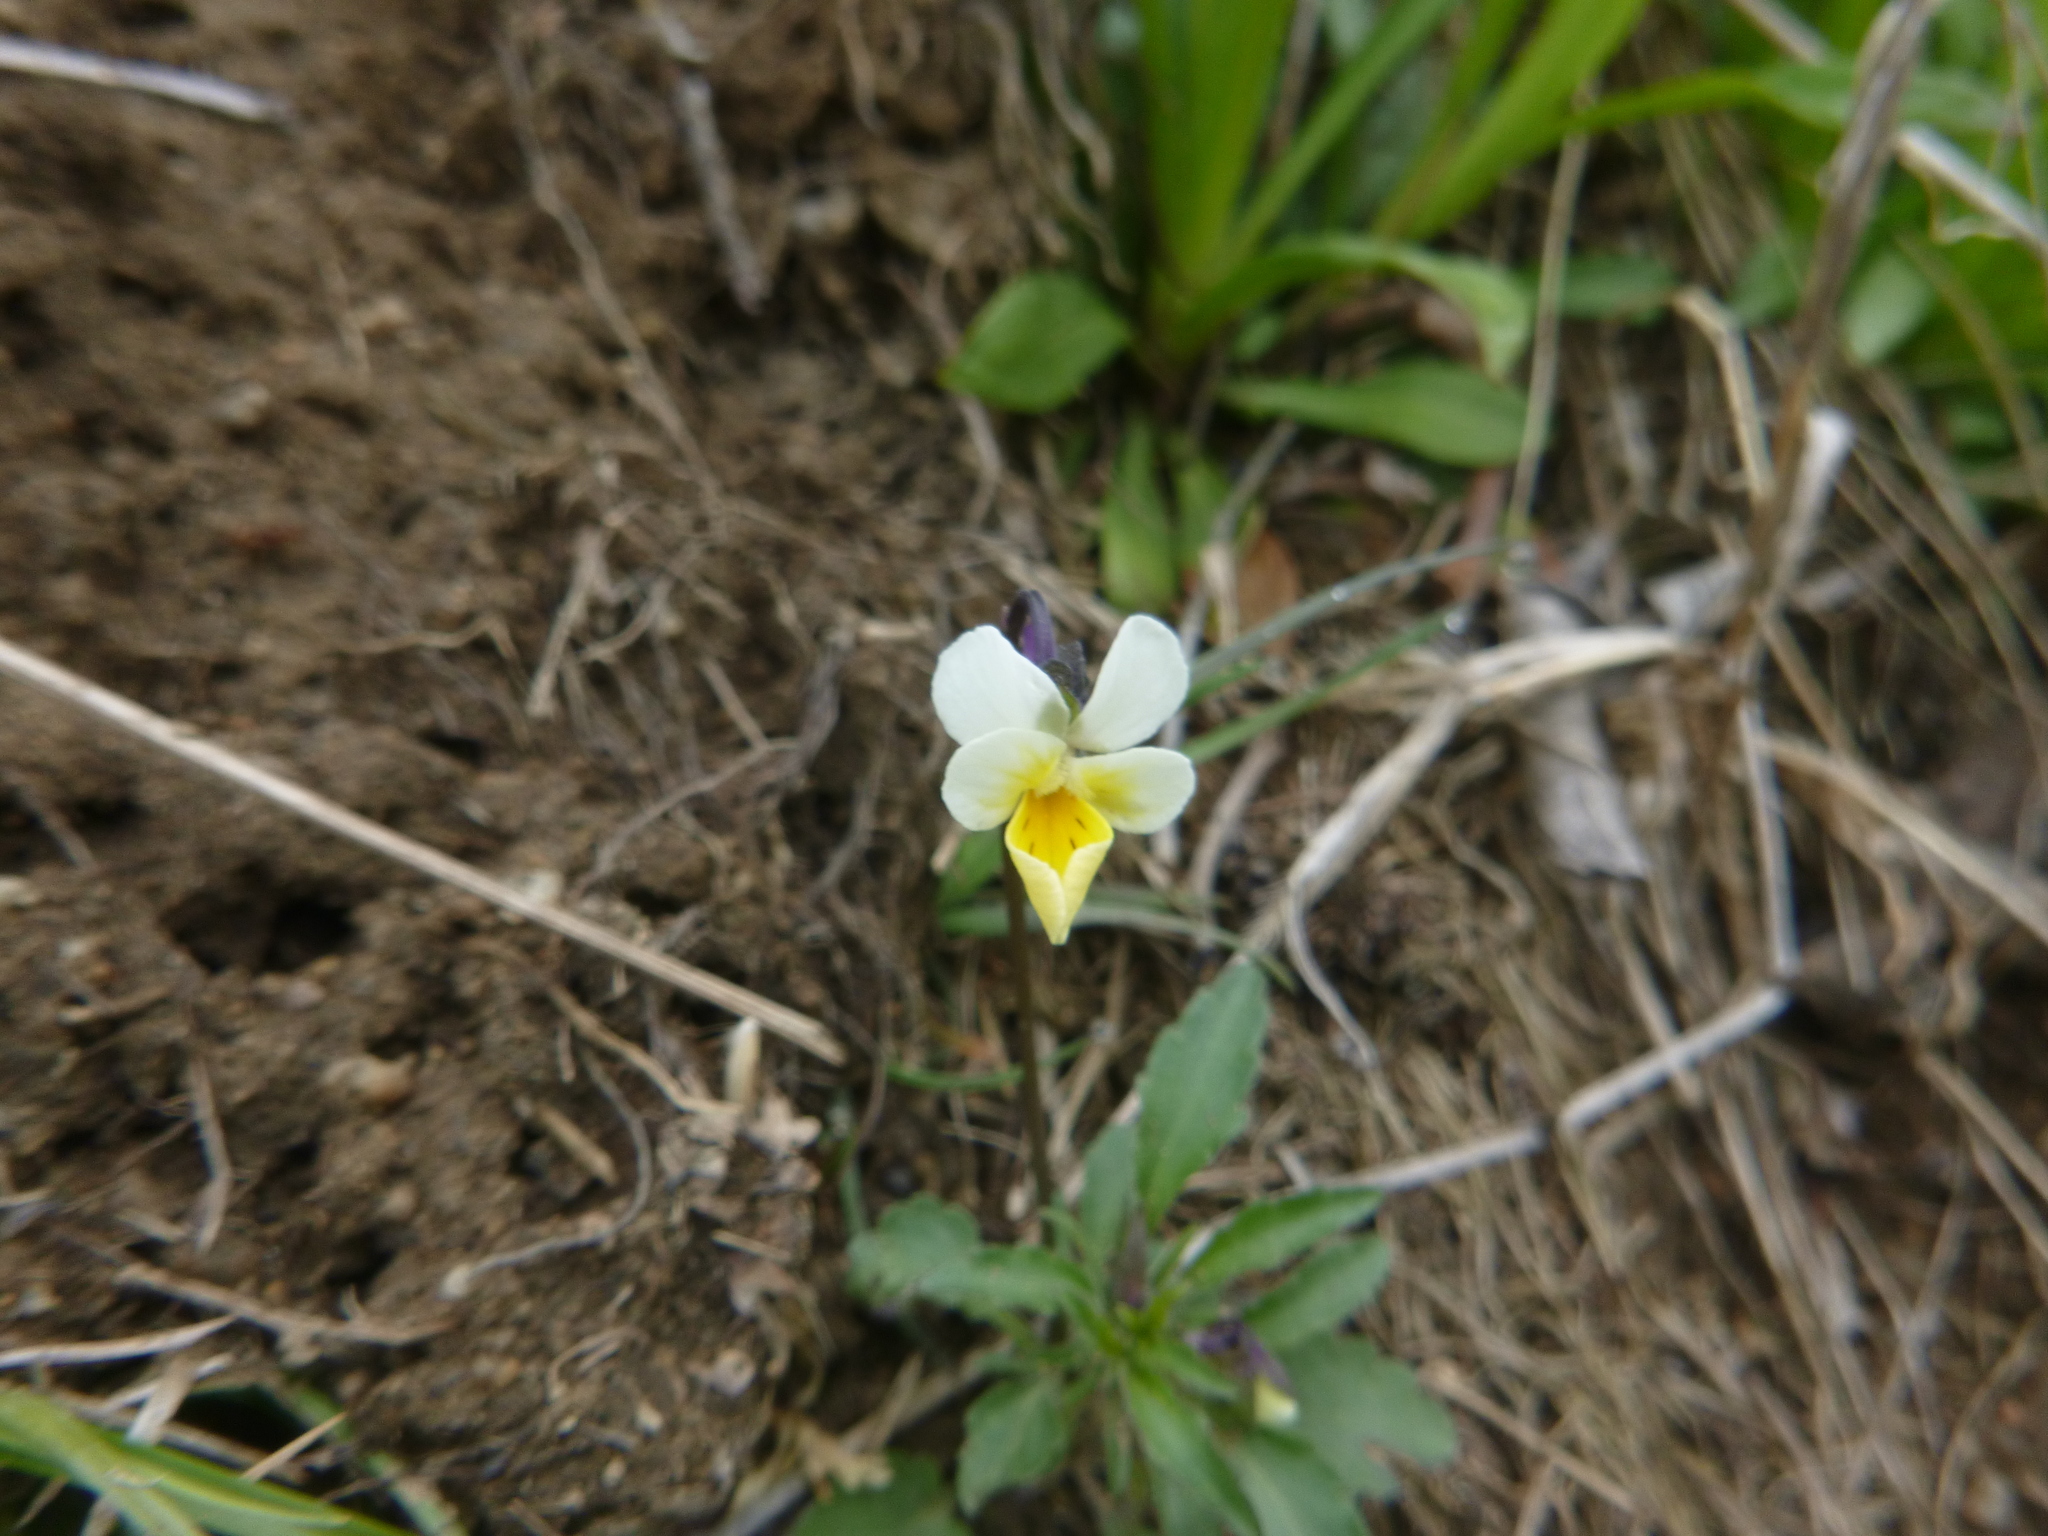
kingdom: Plantae
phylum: Tracheophyta
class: Magnoliopsida
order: Malpighiales
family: Violaceae
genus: Viola
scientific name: Viola arvensis
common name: Field pansy
